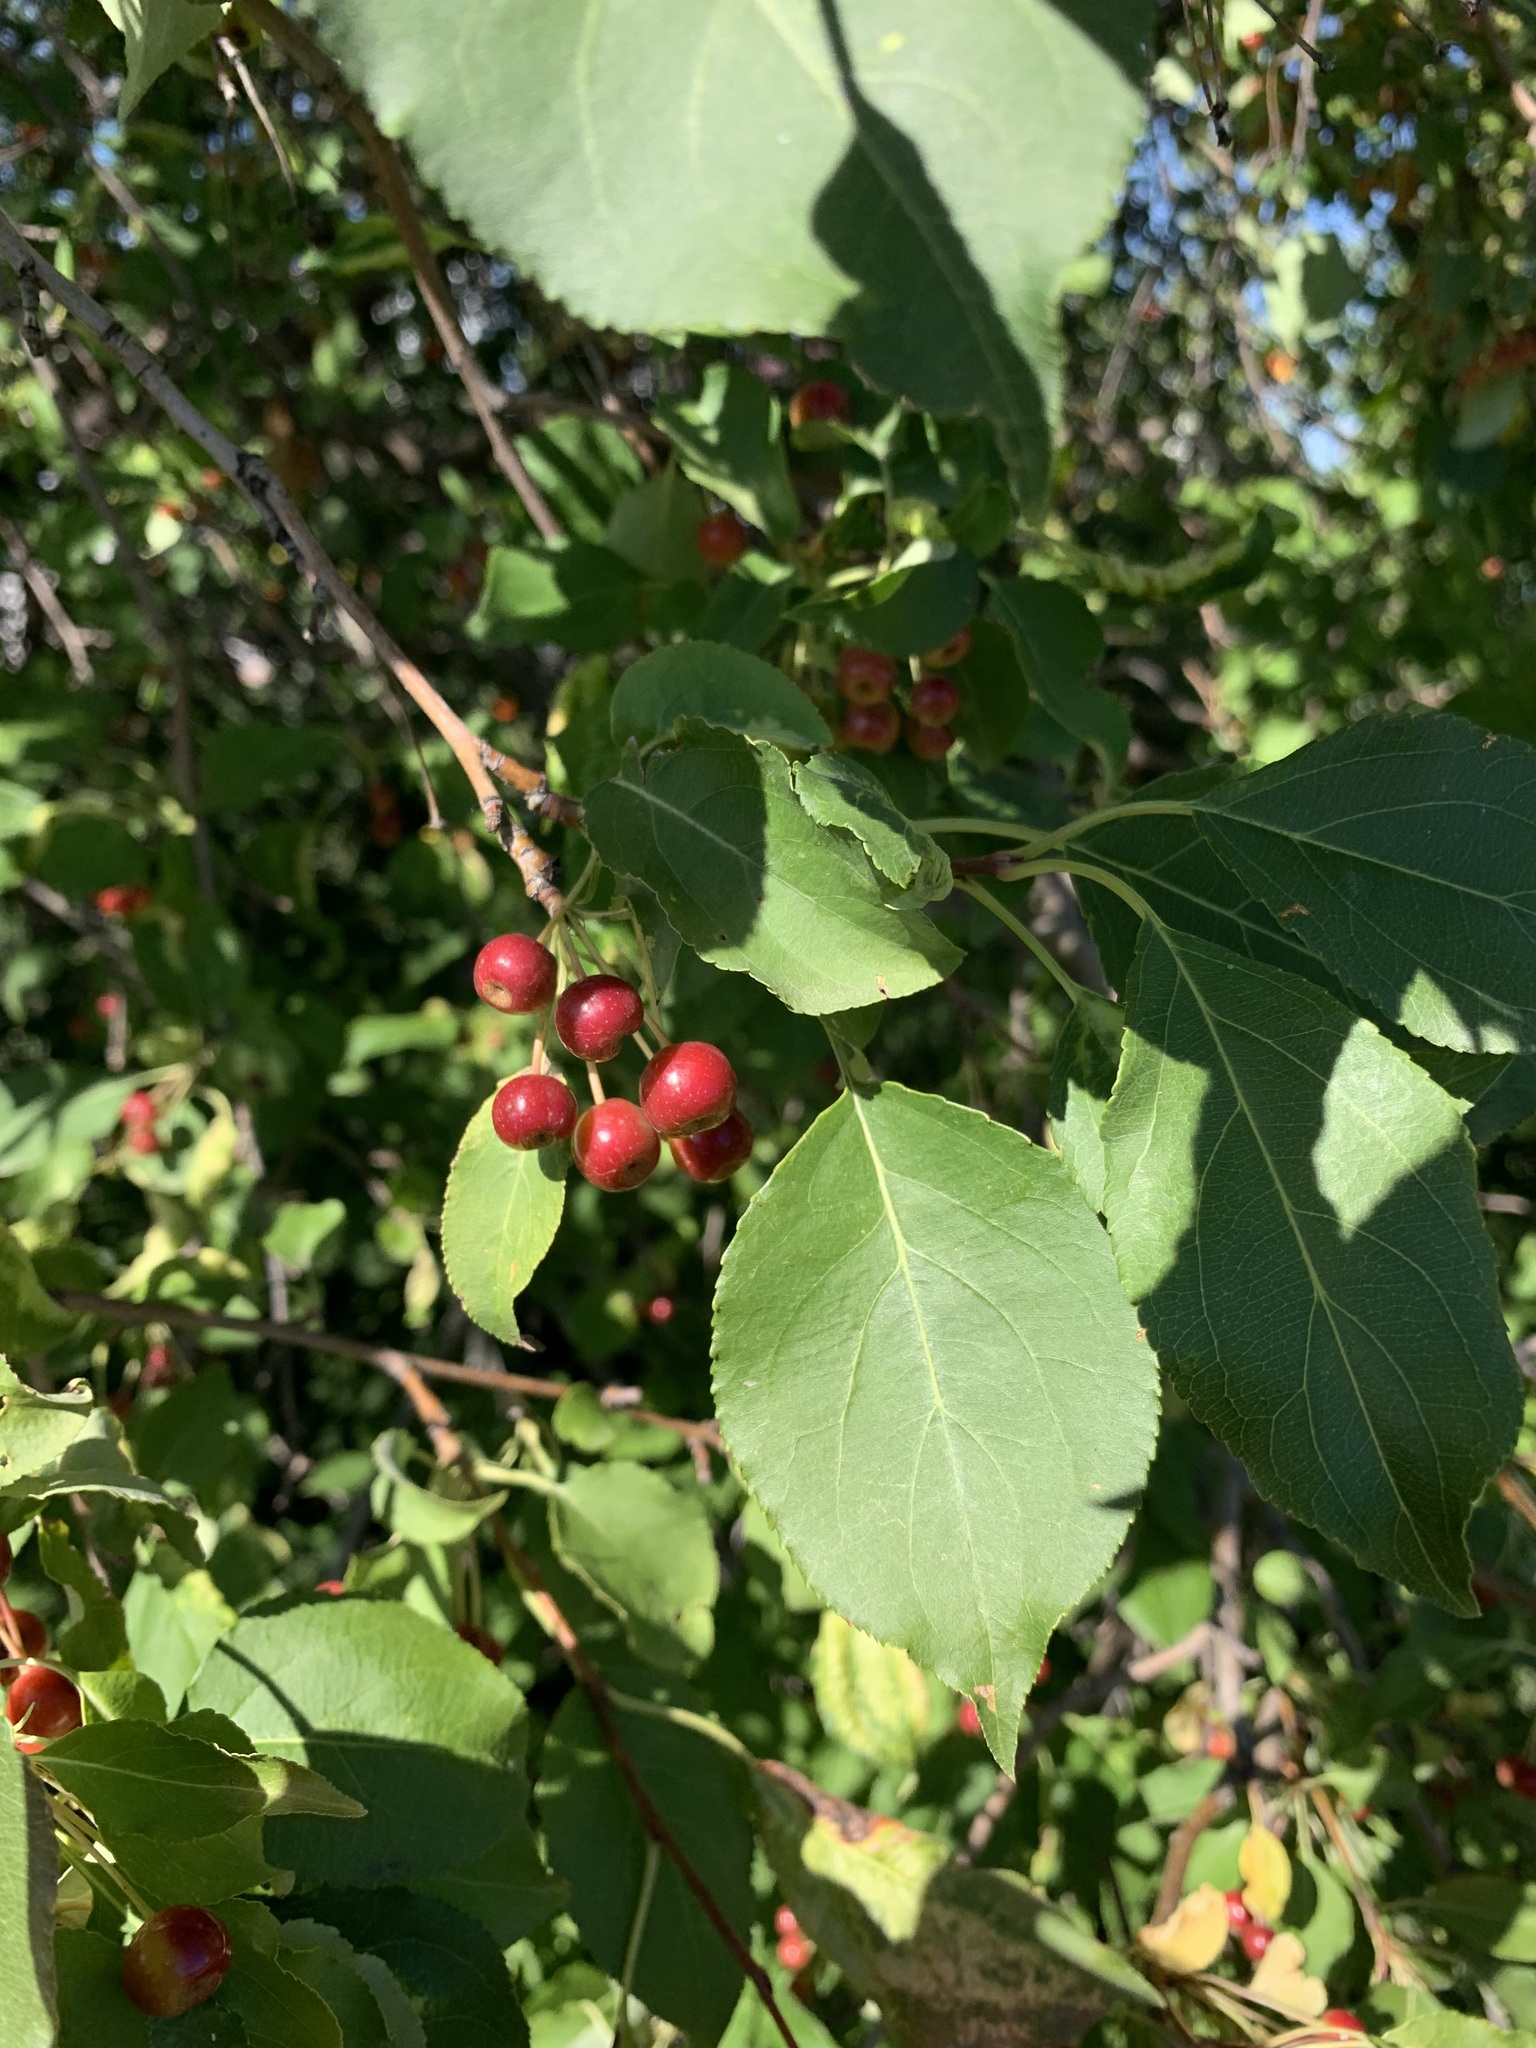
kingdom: Plantae
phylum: Tracheophyta
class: Magnoliopsida
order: Rosales
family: Rosaceae
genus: Malus
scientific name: Malus baccata
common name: Siberian crab
